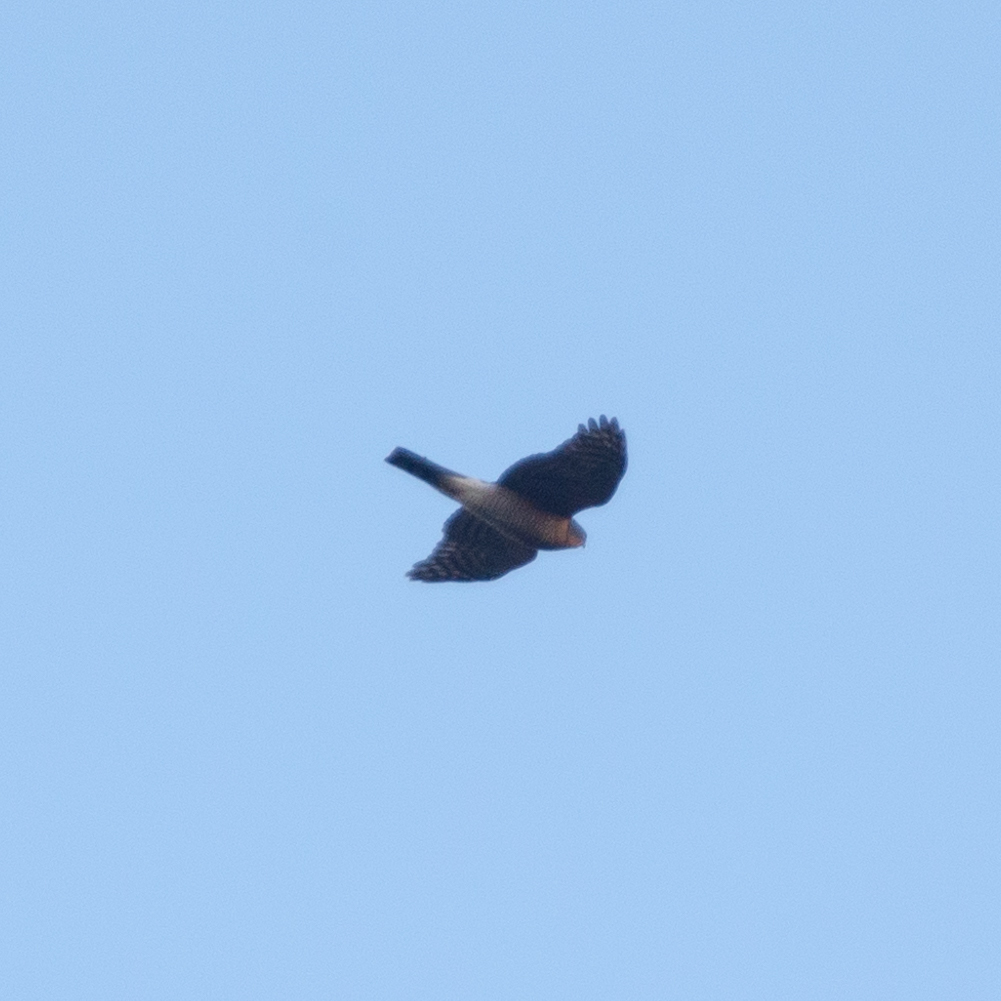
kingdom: Animalia
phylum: Chordata
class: Aves
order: Accipitriformes
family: Accipitridae
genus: Accipiter
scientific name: Accipiter nisus
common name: Eurasian sparrowhawk
